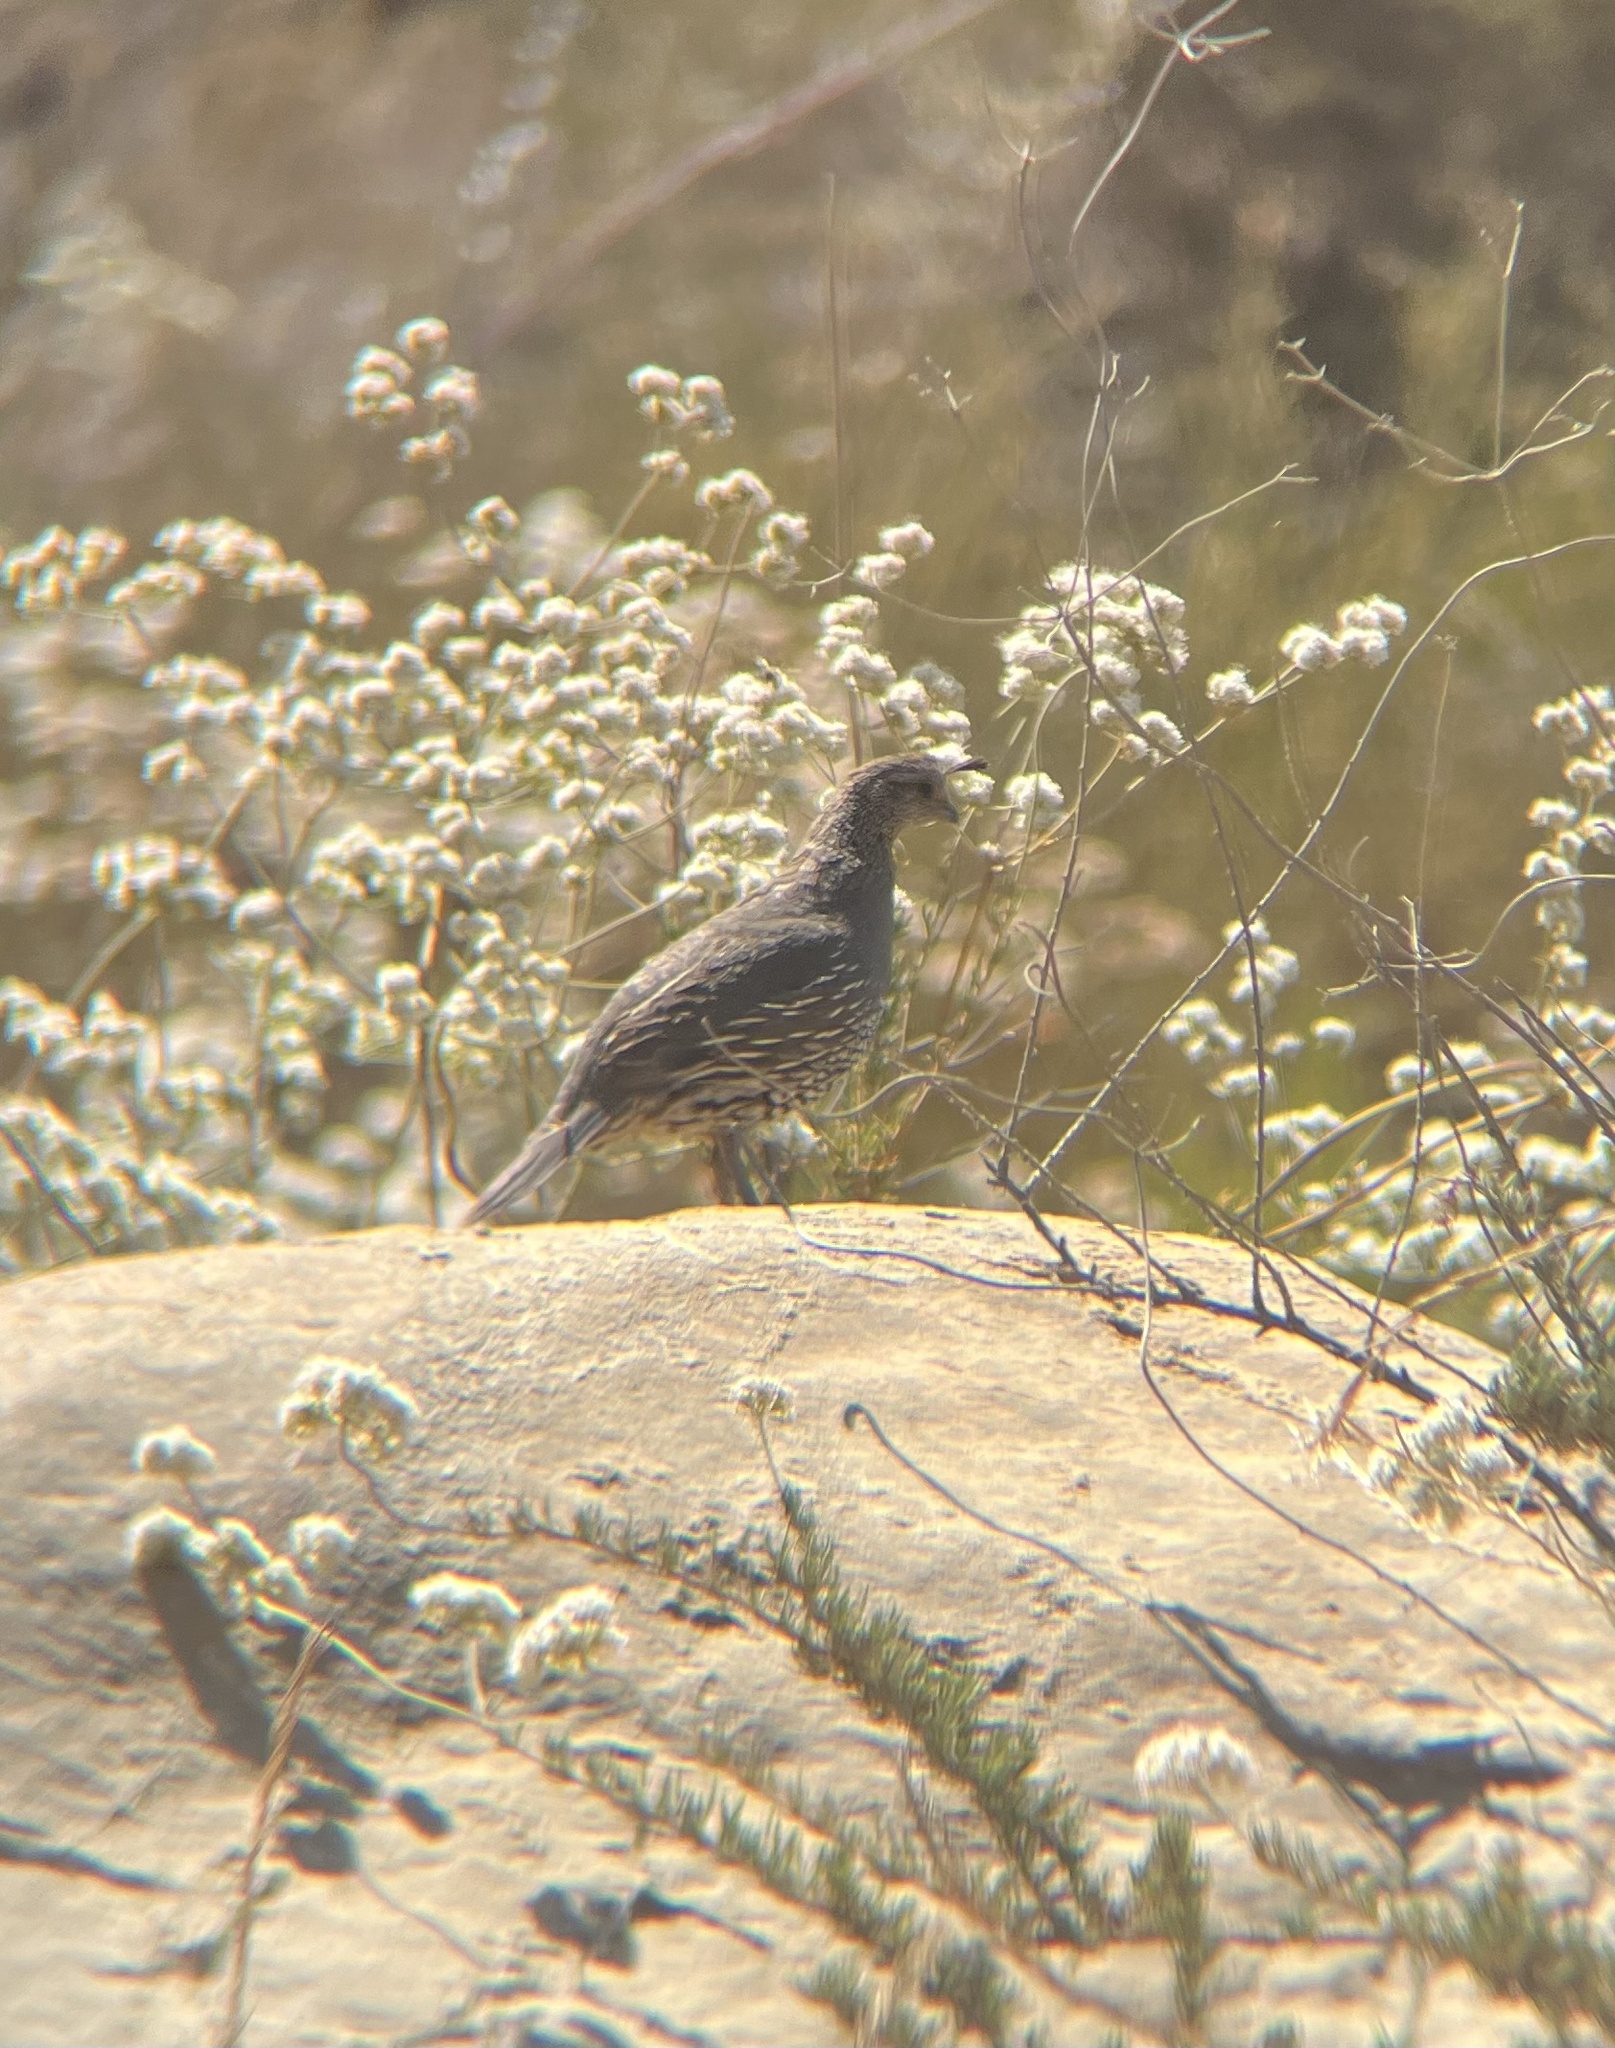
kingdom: Animalia
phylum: Chordata
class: Aves
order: Galliformes
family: Odontophoridae
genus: Callipepla
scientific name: Callipepla californica
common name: California quail
